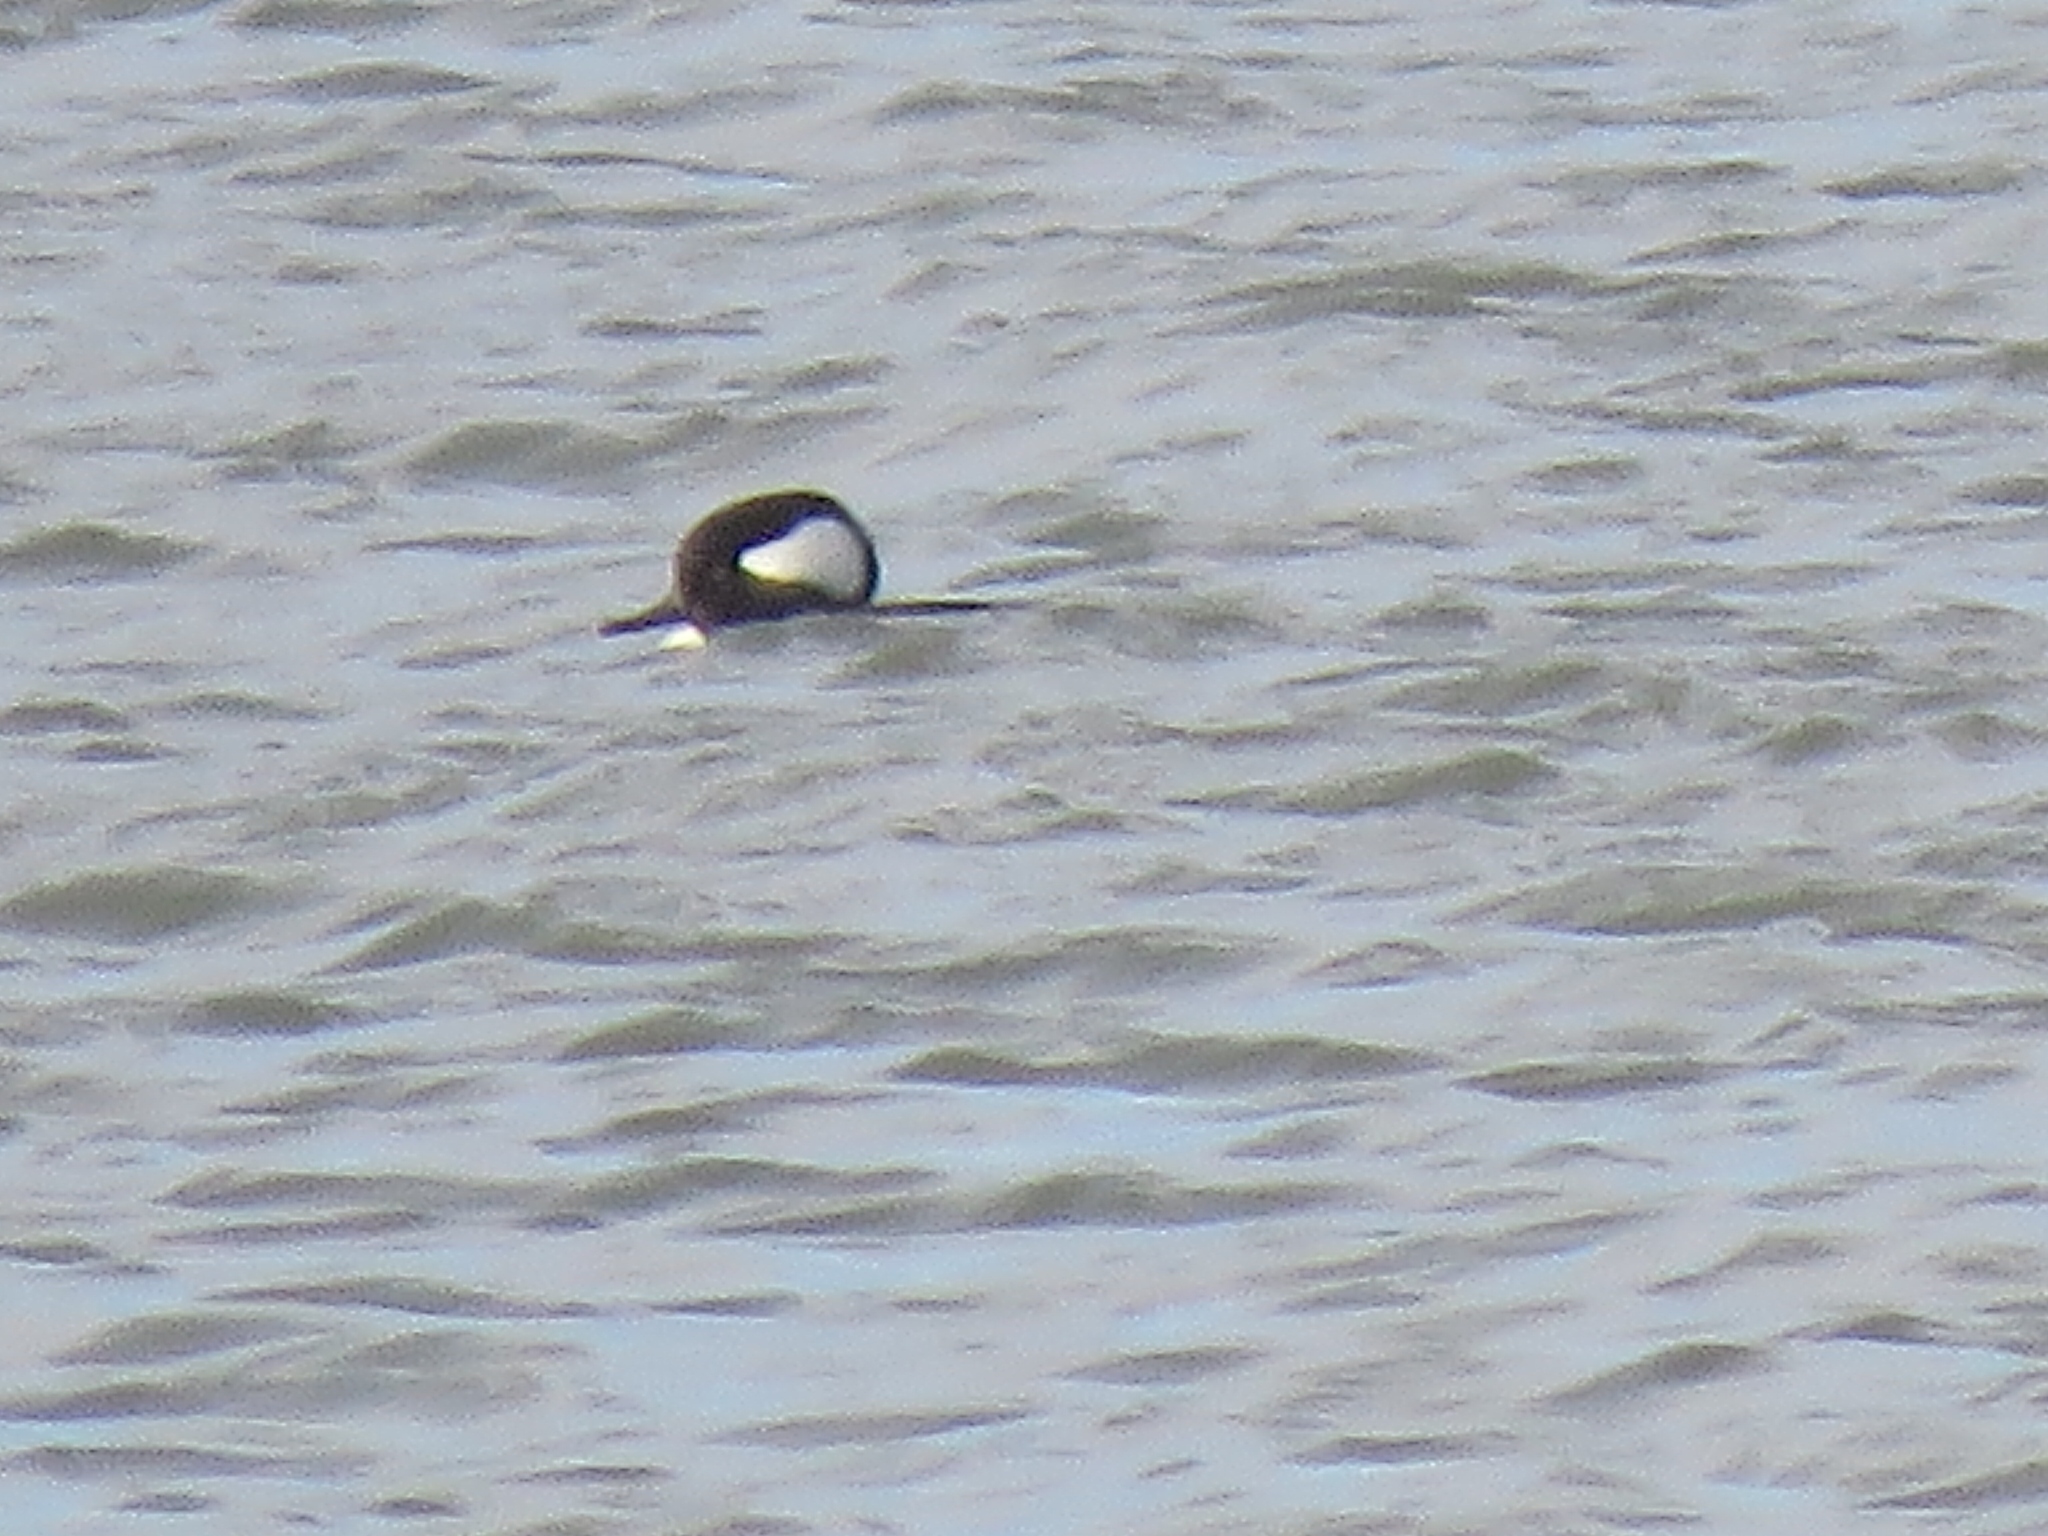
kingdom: Animalia
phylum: Chordata
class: Aves
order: Anseriformes
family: Anatidae
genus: Lophodytes
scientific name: Lophodytes cucullatus
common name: Hooded merganser
